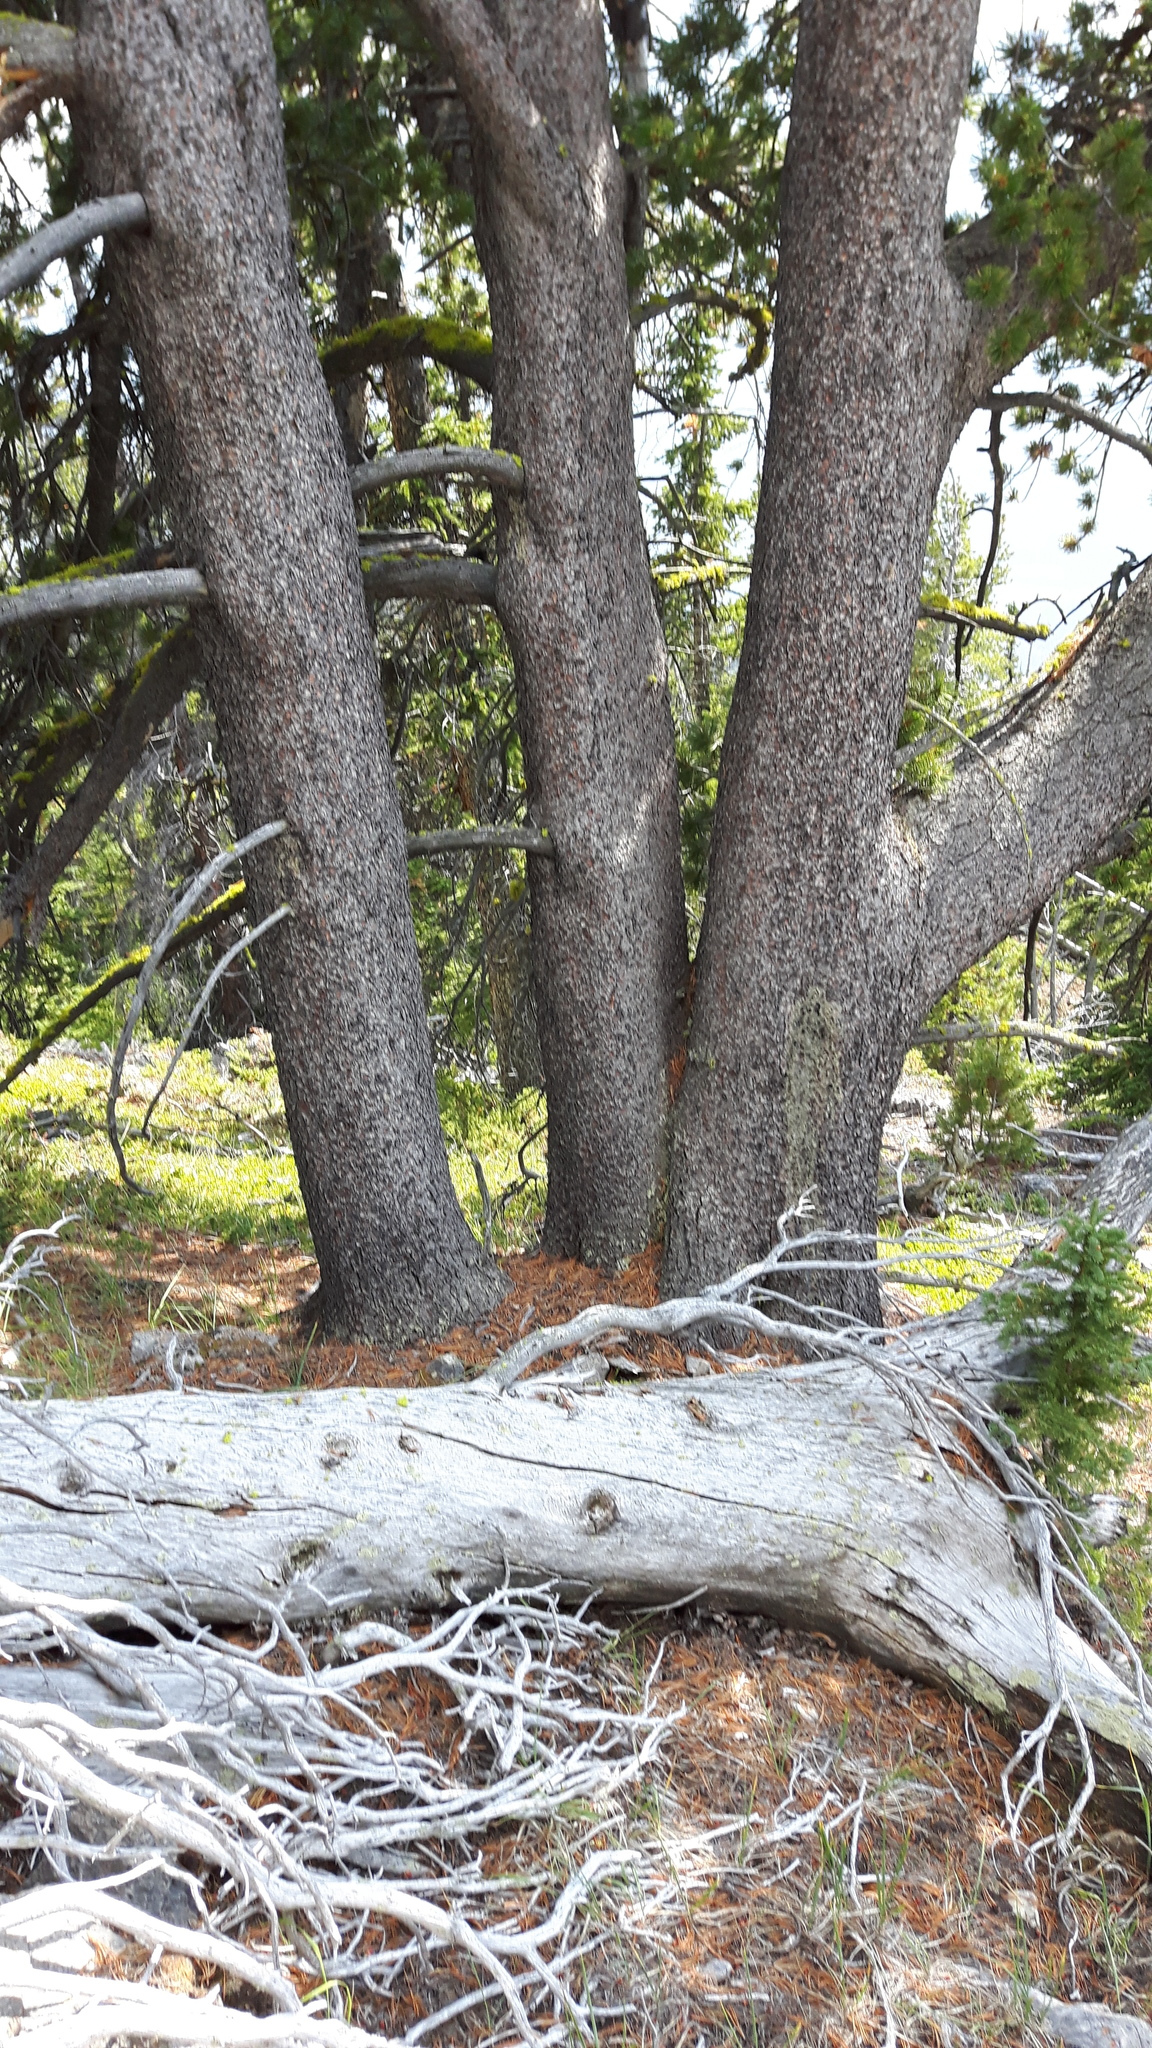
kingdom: Plantae
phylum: Tracheophyta
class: Pinopsida
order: Pinales
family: Pinaceae
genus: Pinus
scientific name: Pinus albicaulis
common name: Whitebark pine
